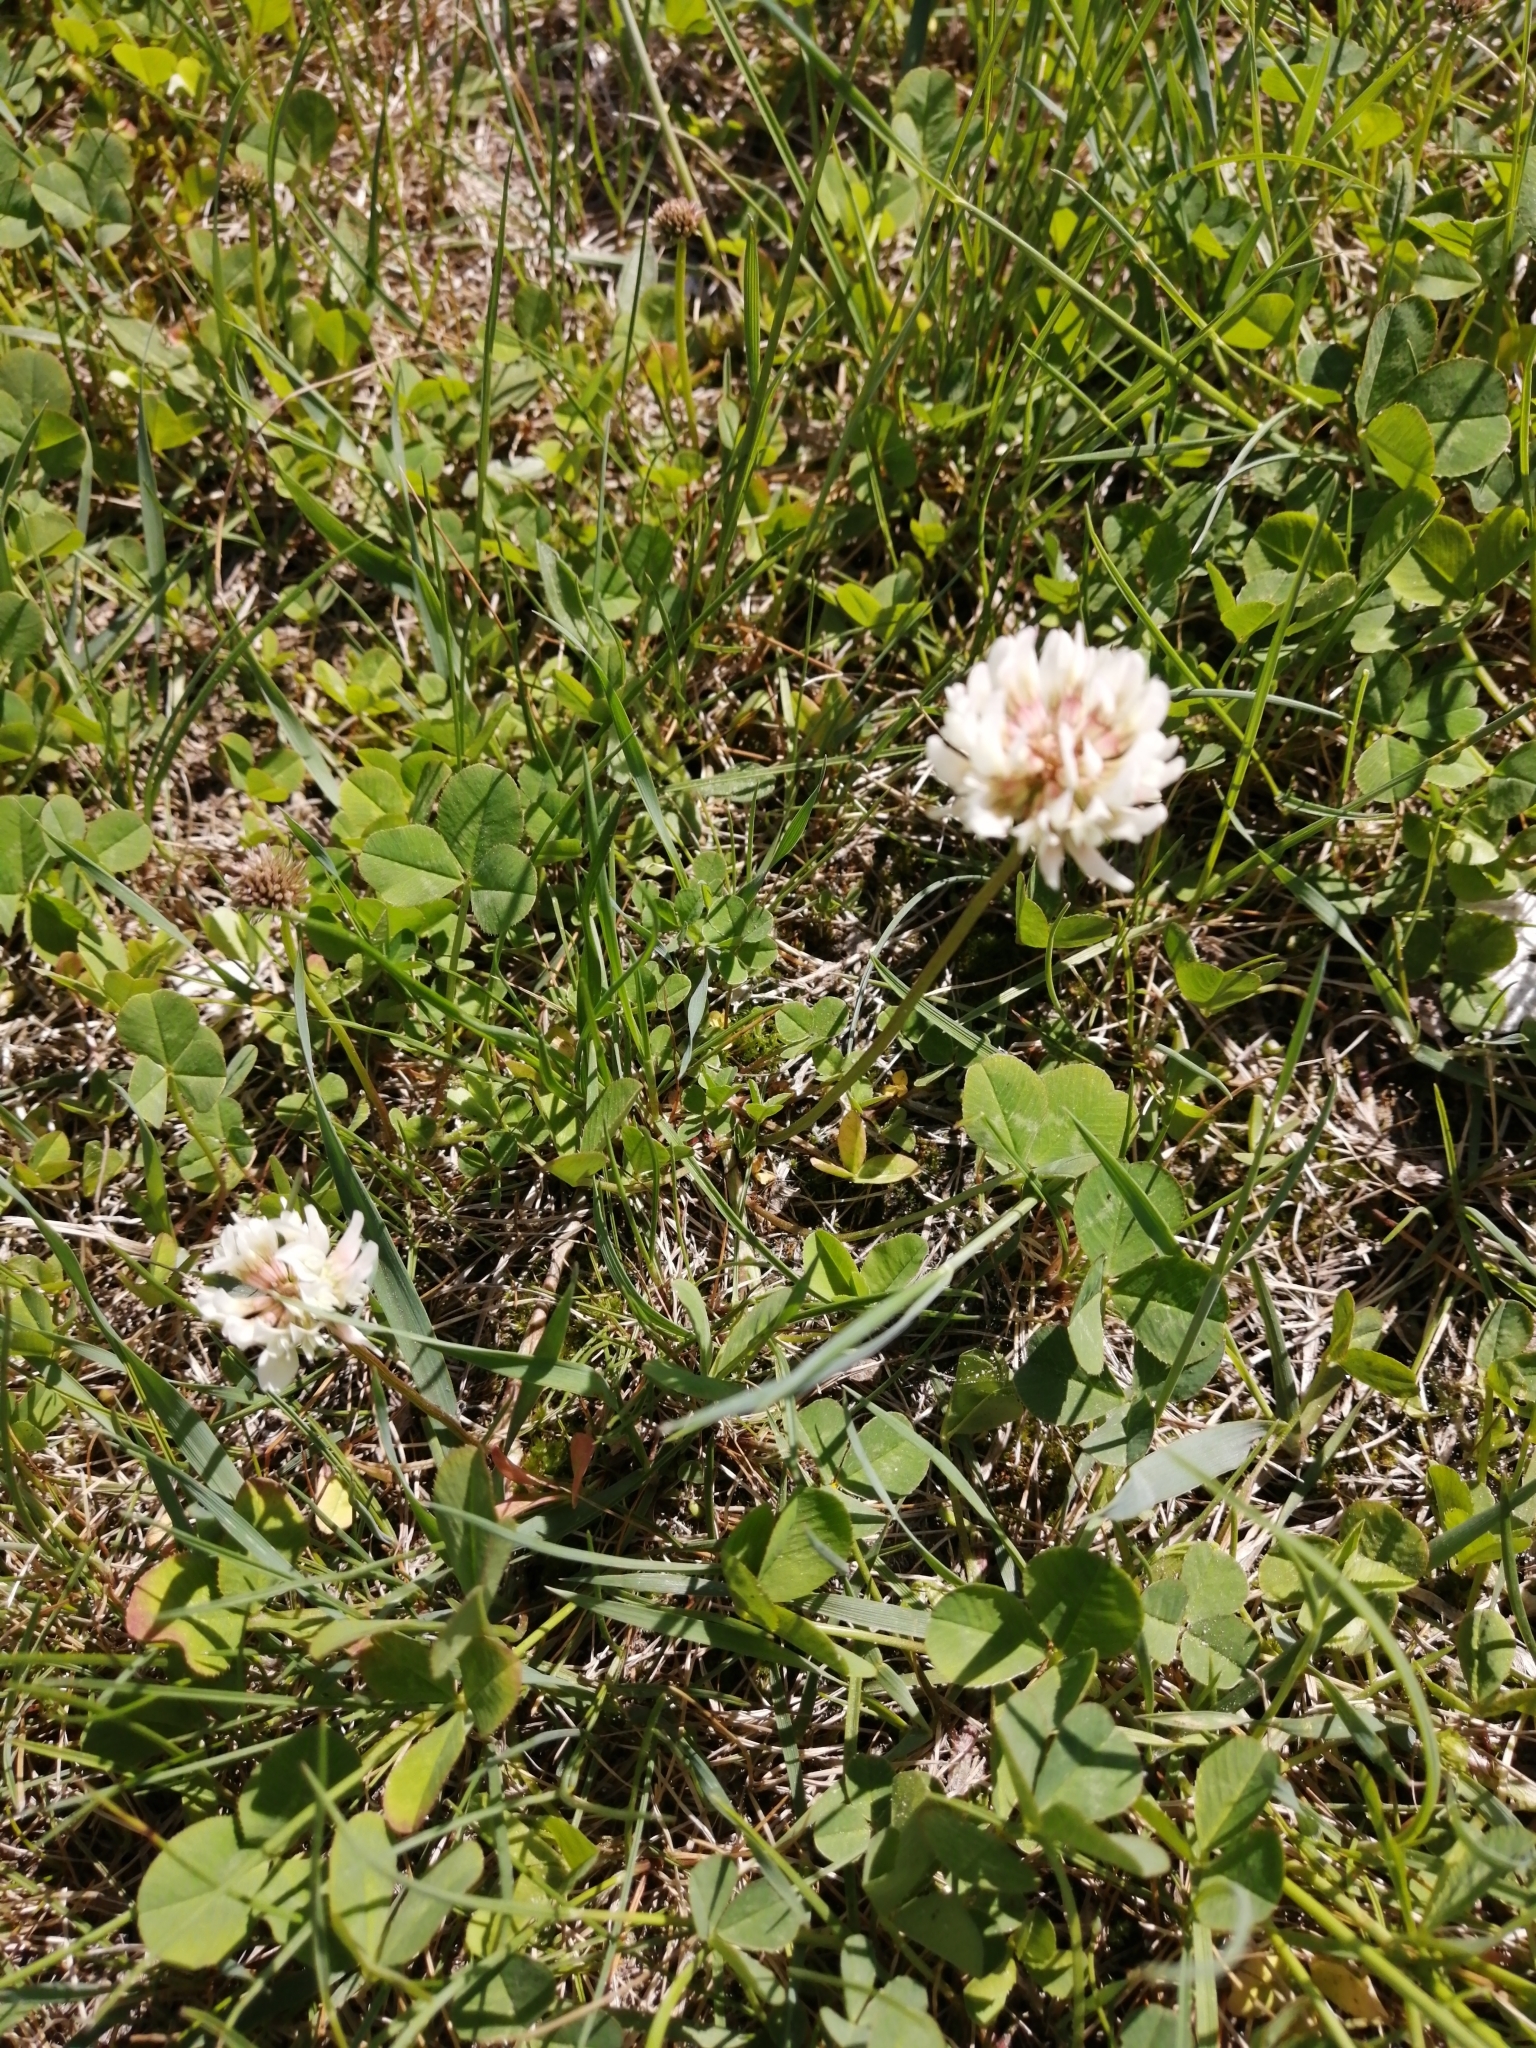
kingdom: Plantae
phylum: Tracheophyta
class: Magnoliopsida
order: Fabales
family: Fabaceae
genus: Trifolium
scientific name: Trifolium repens
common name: White clover
